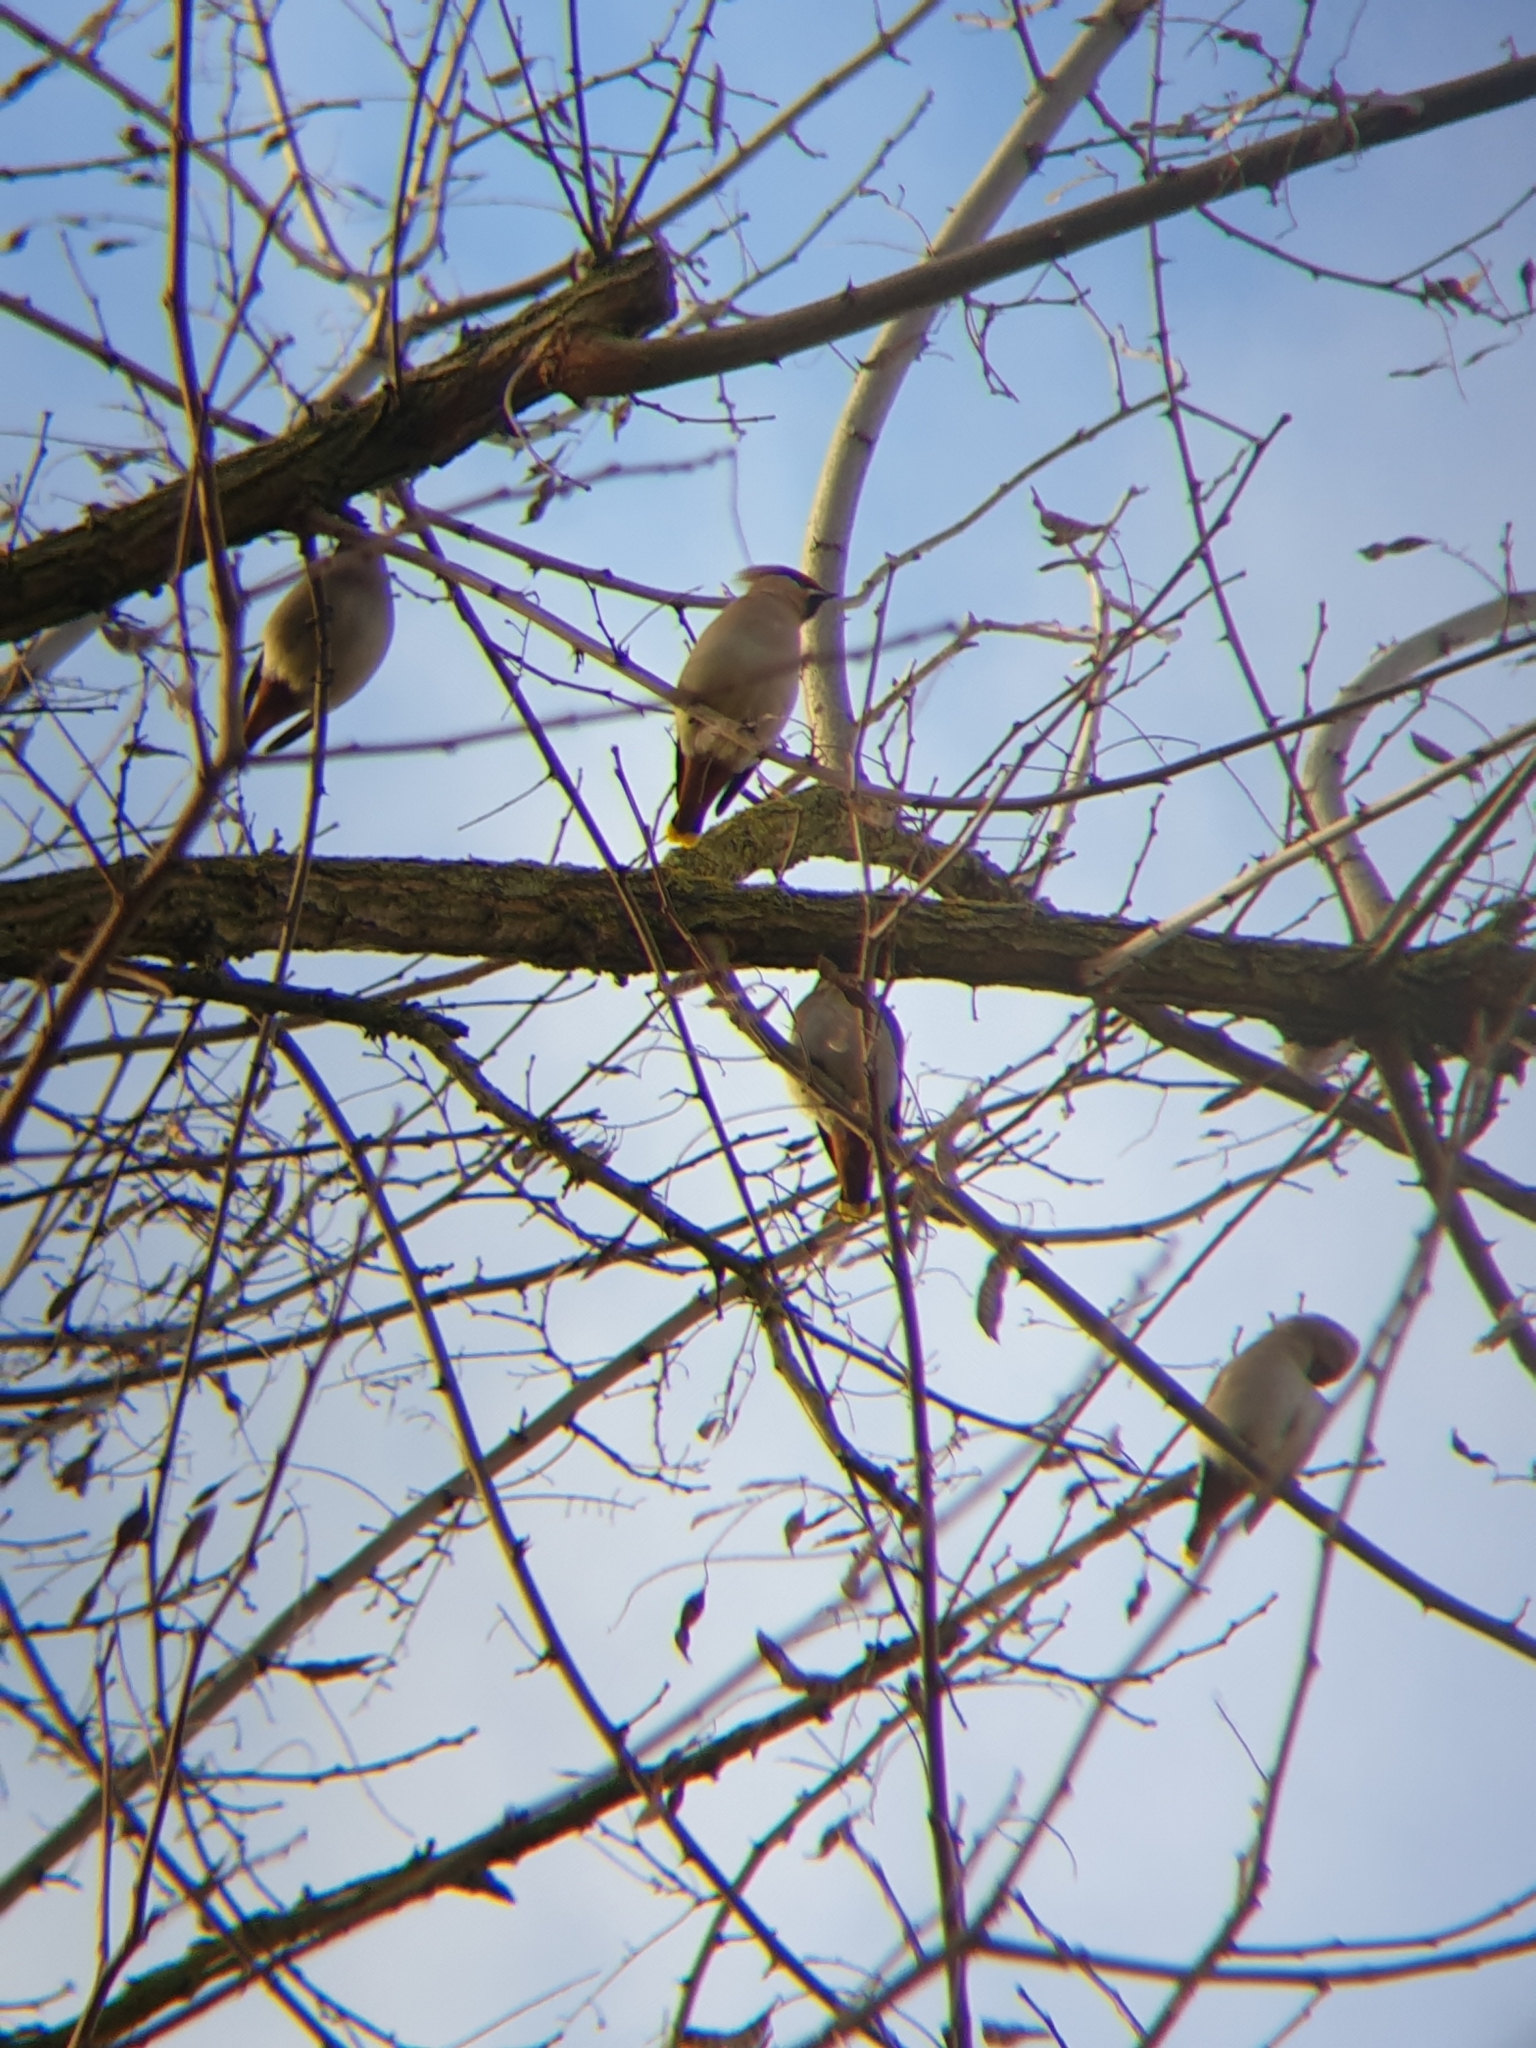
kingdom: Animalia
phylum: Chordata
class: Aves
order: Passeriformes
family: Bombycillidae
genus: Bombycilla
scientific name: Bombycilla garrulus
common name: Bohemian waxwing
